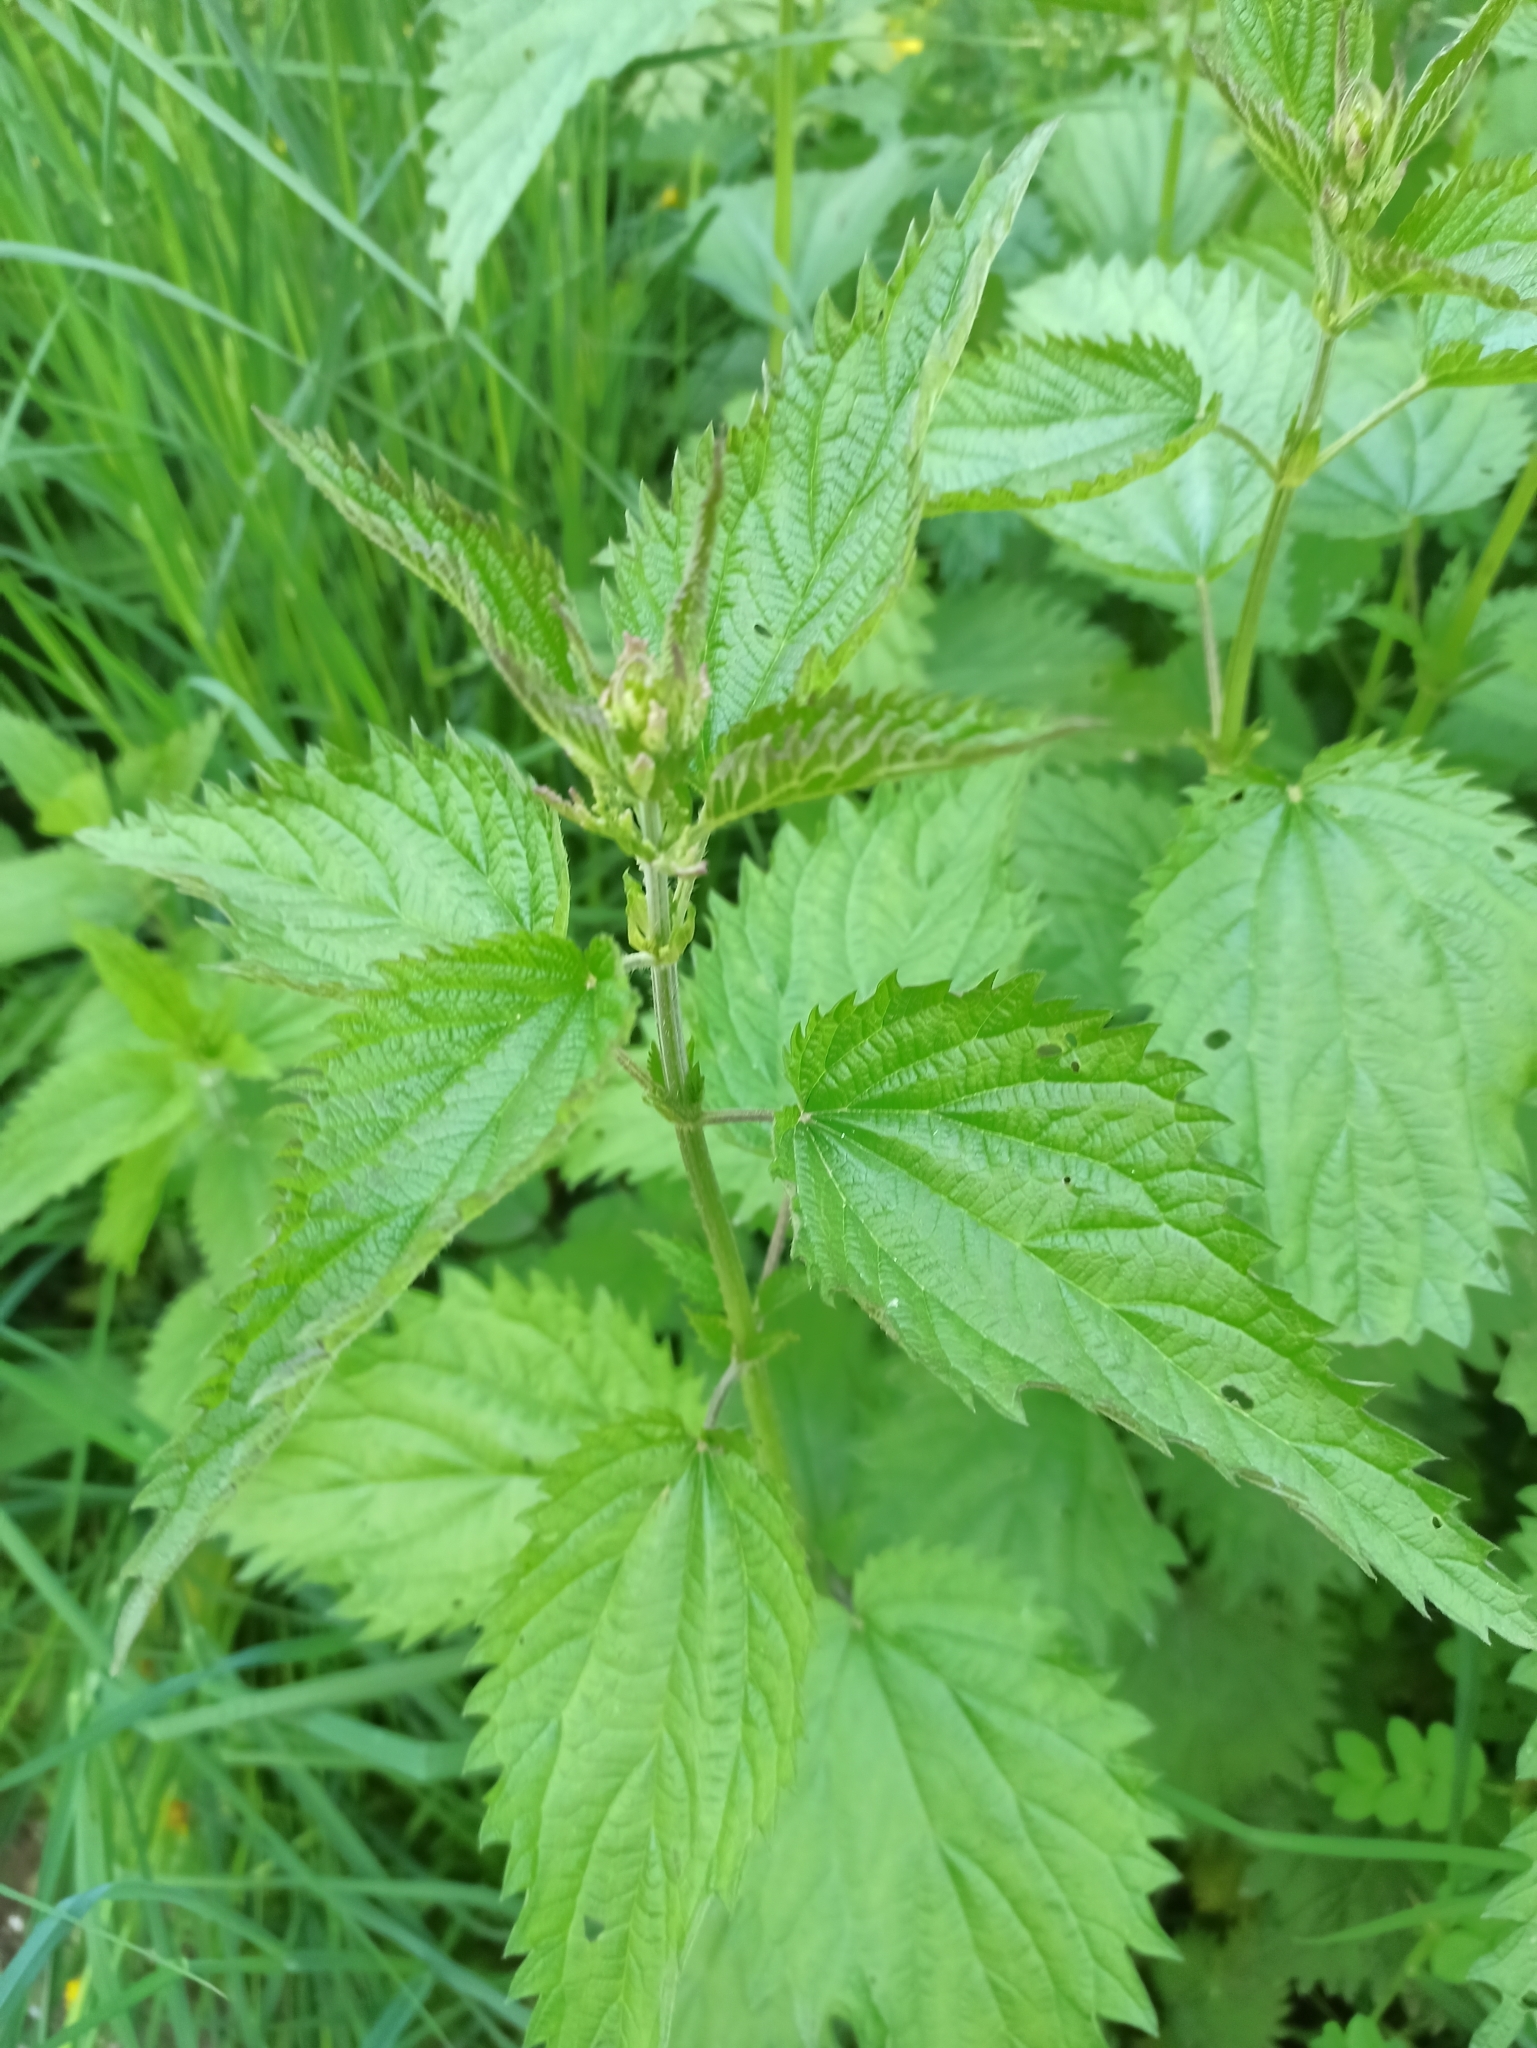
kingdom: Plantae
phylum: Tracheophyta
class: Magnoliopsida
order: Rosales
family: Urticaceae
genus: Urtica
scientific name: Urtica dioica
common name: Common nettle
